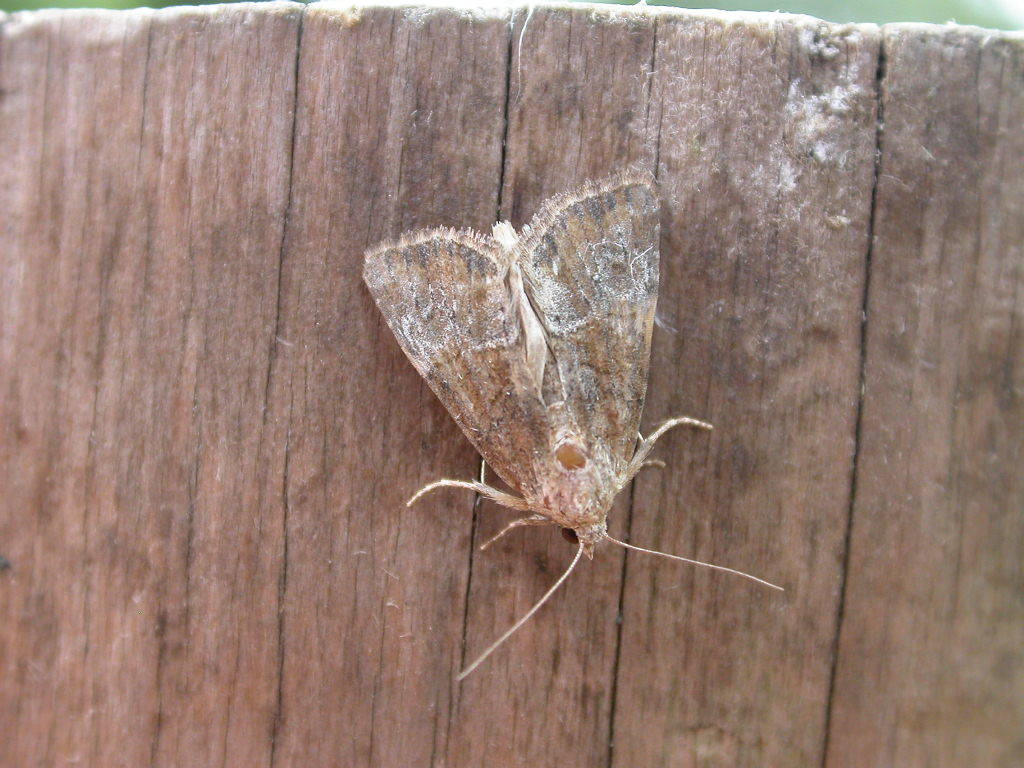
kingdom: Animalia
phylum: Arthropoda
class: Insecta
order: Lepidoptera
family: Noctuidae
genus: Mesoligia
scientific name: Mesoligia furuncula
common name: Cloaked minor
